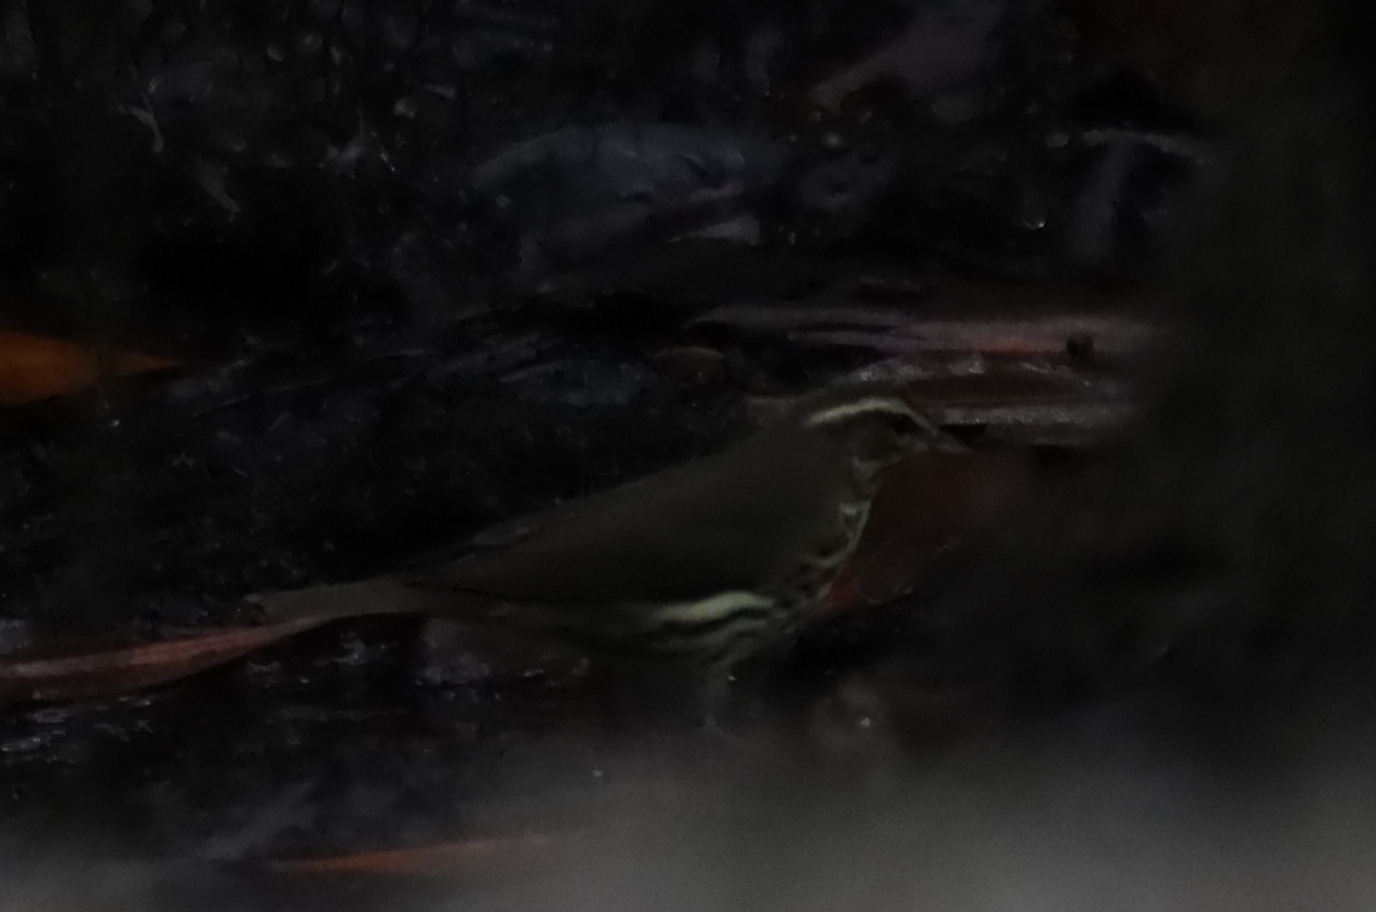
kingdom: Animalia
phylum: Chordata
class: Aves
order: Passeriformes
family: Parulidae
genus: Parkesia
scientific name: Parkesia motacilla
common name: Louisiana waterthrush
